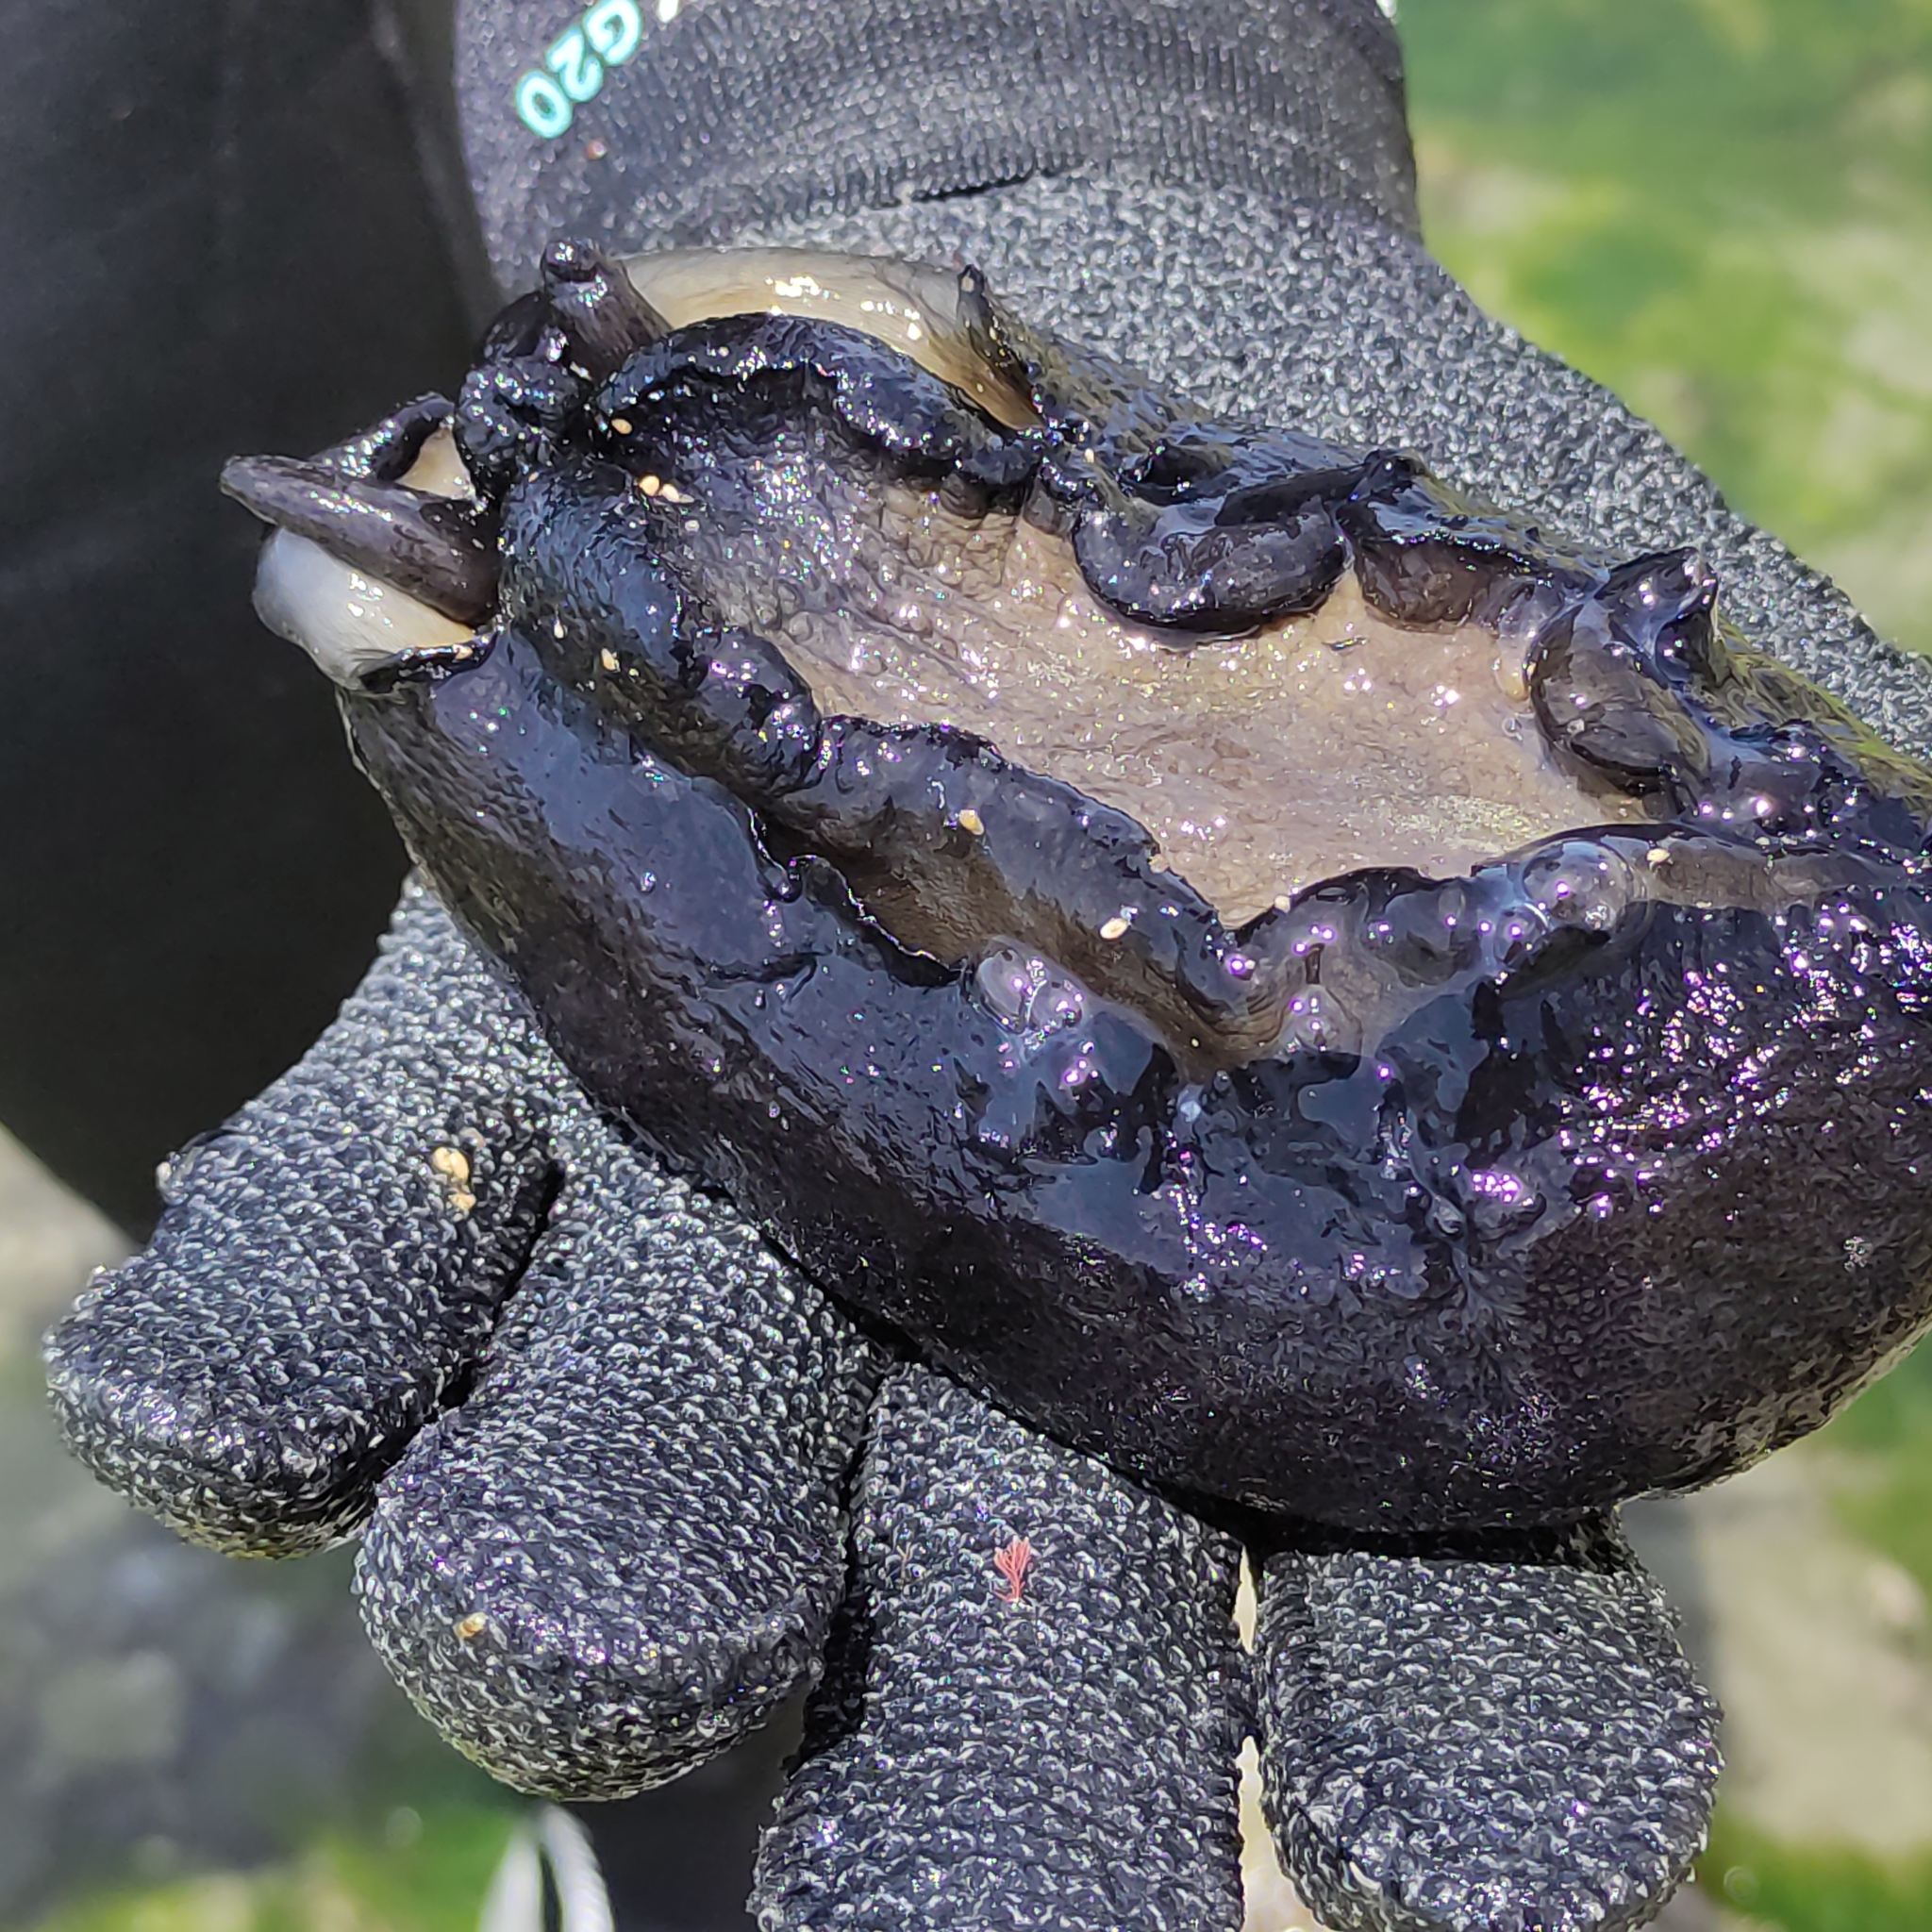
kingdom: Animalia
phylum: Mollusca
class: Gastropoda
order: Lepetellida
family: Fissurellidae
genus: Scutus
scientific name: Scutus breviculus
